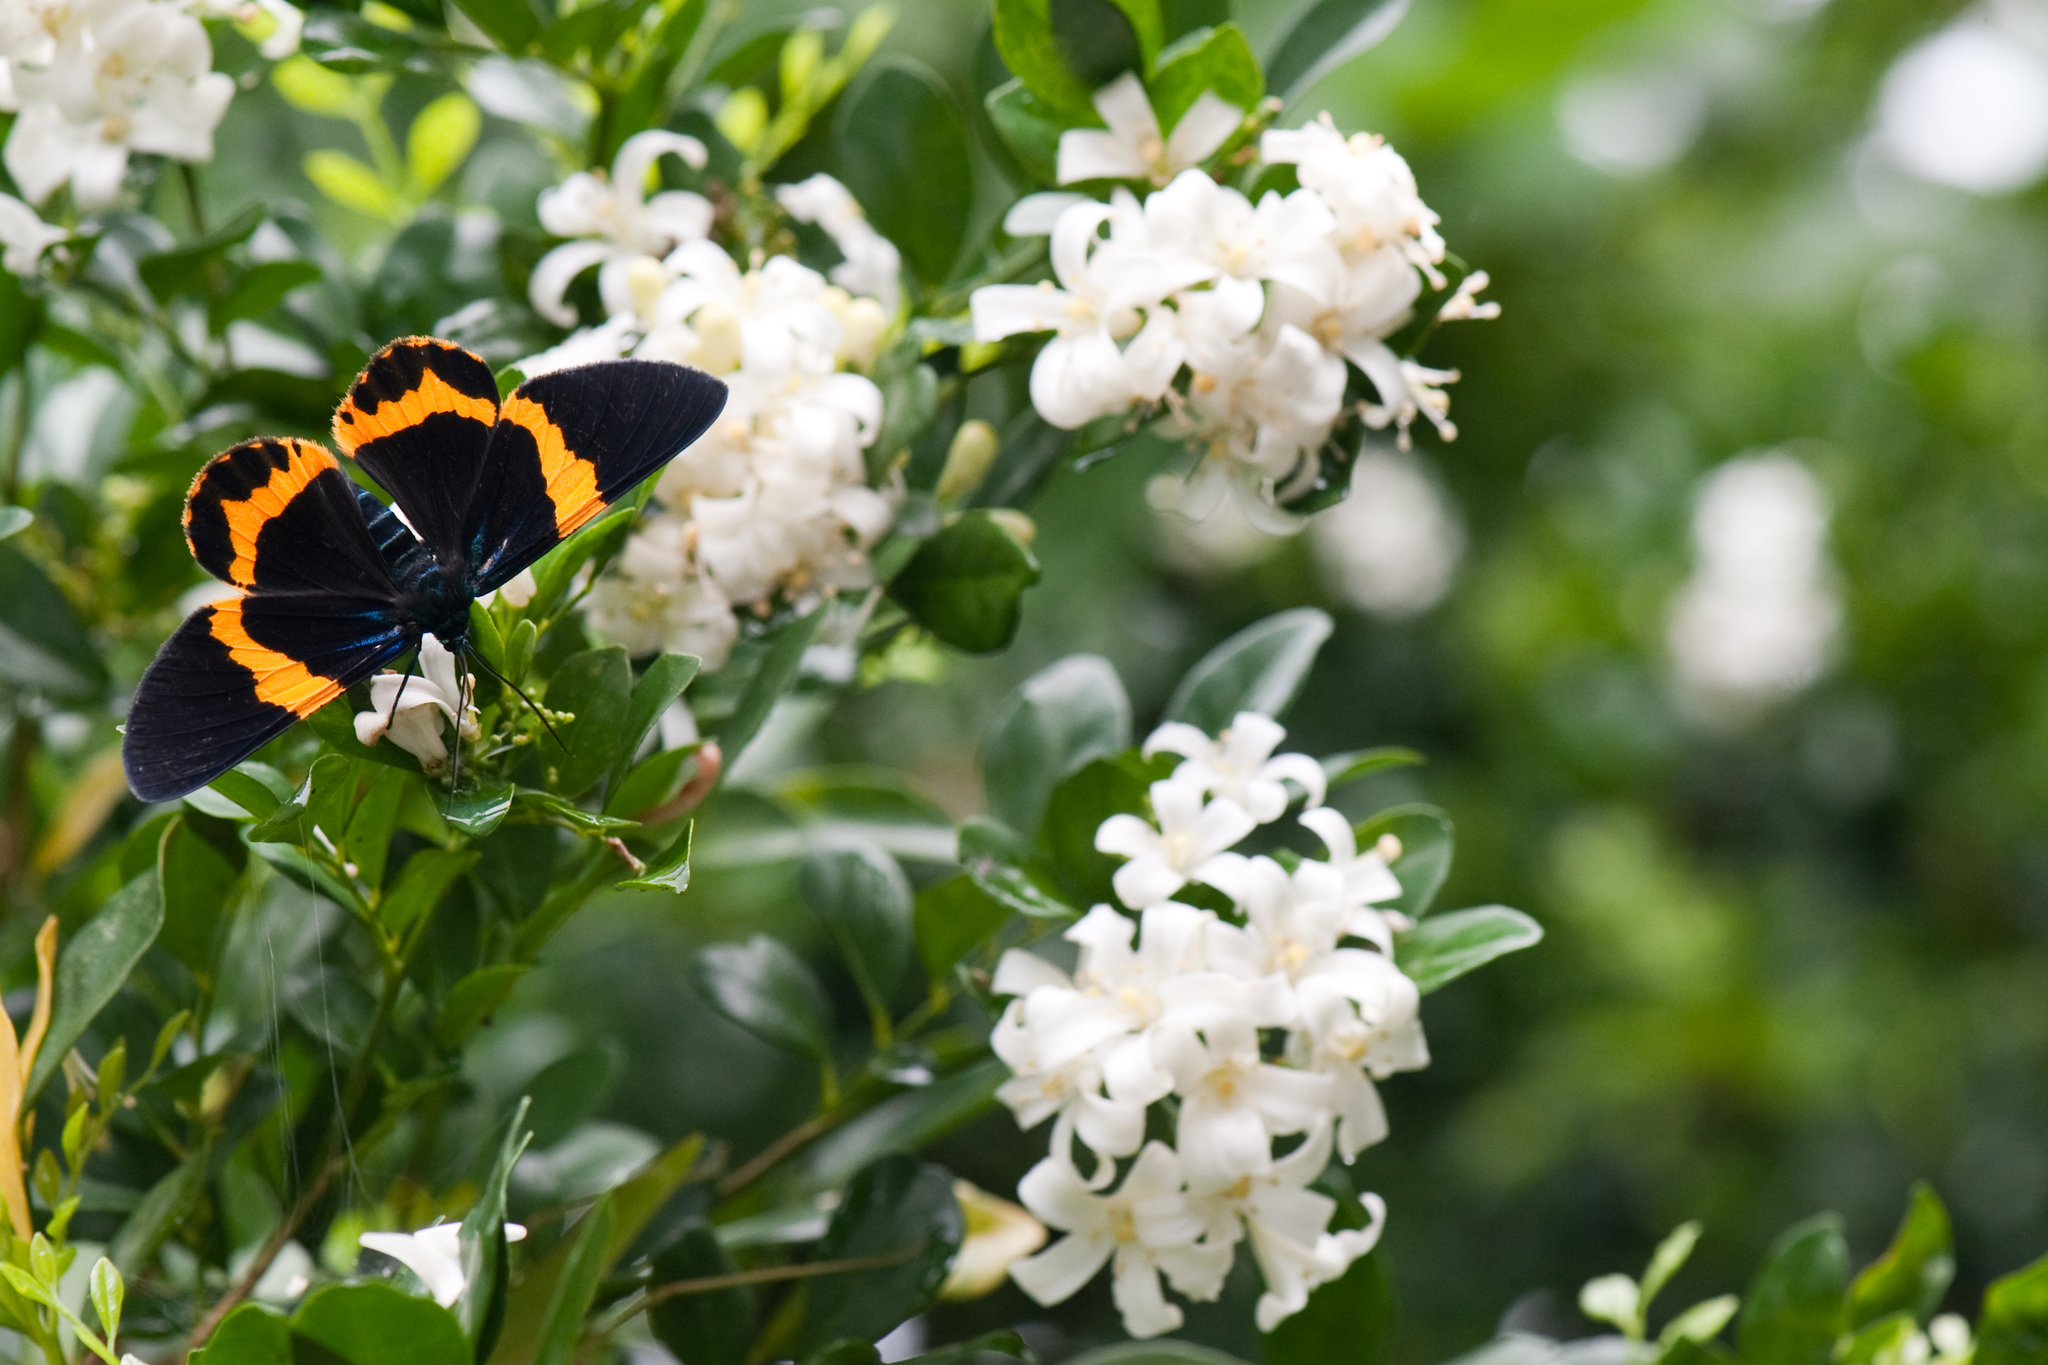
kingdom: Animalia
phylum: Arthropoda
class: Insecta
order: Lepidoptera
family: Geometridae
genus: Milionia
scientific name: Milionia basalis
